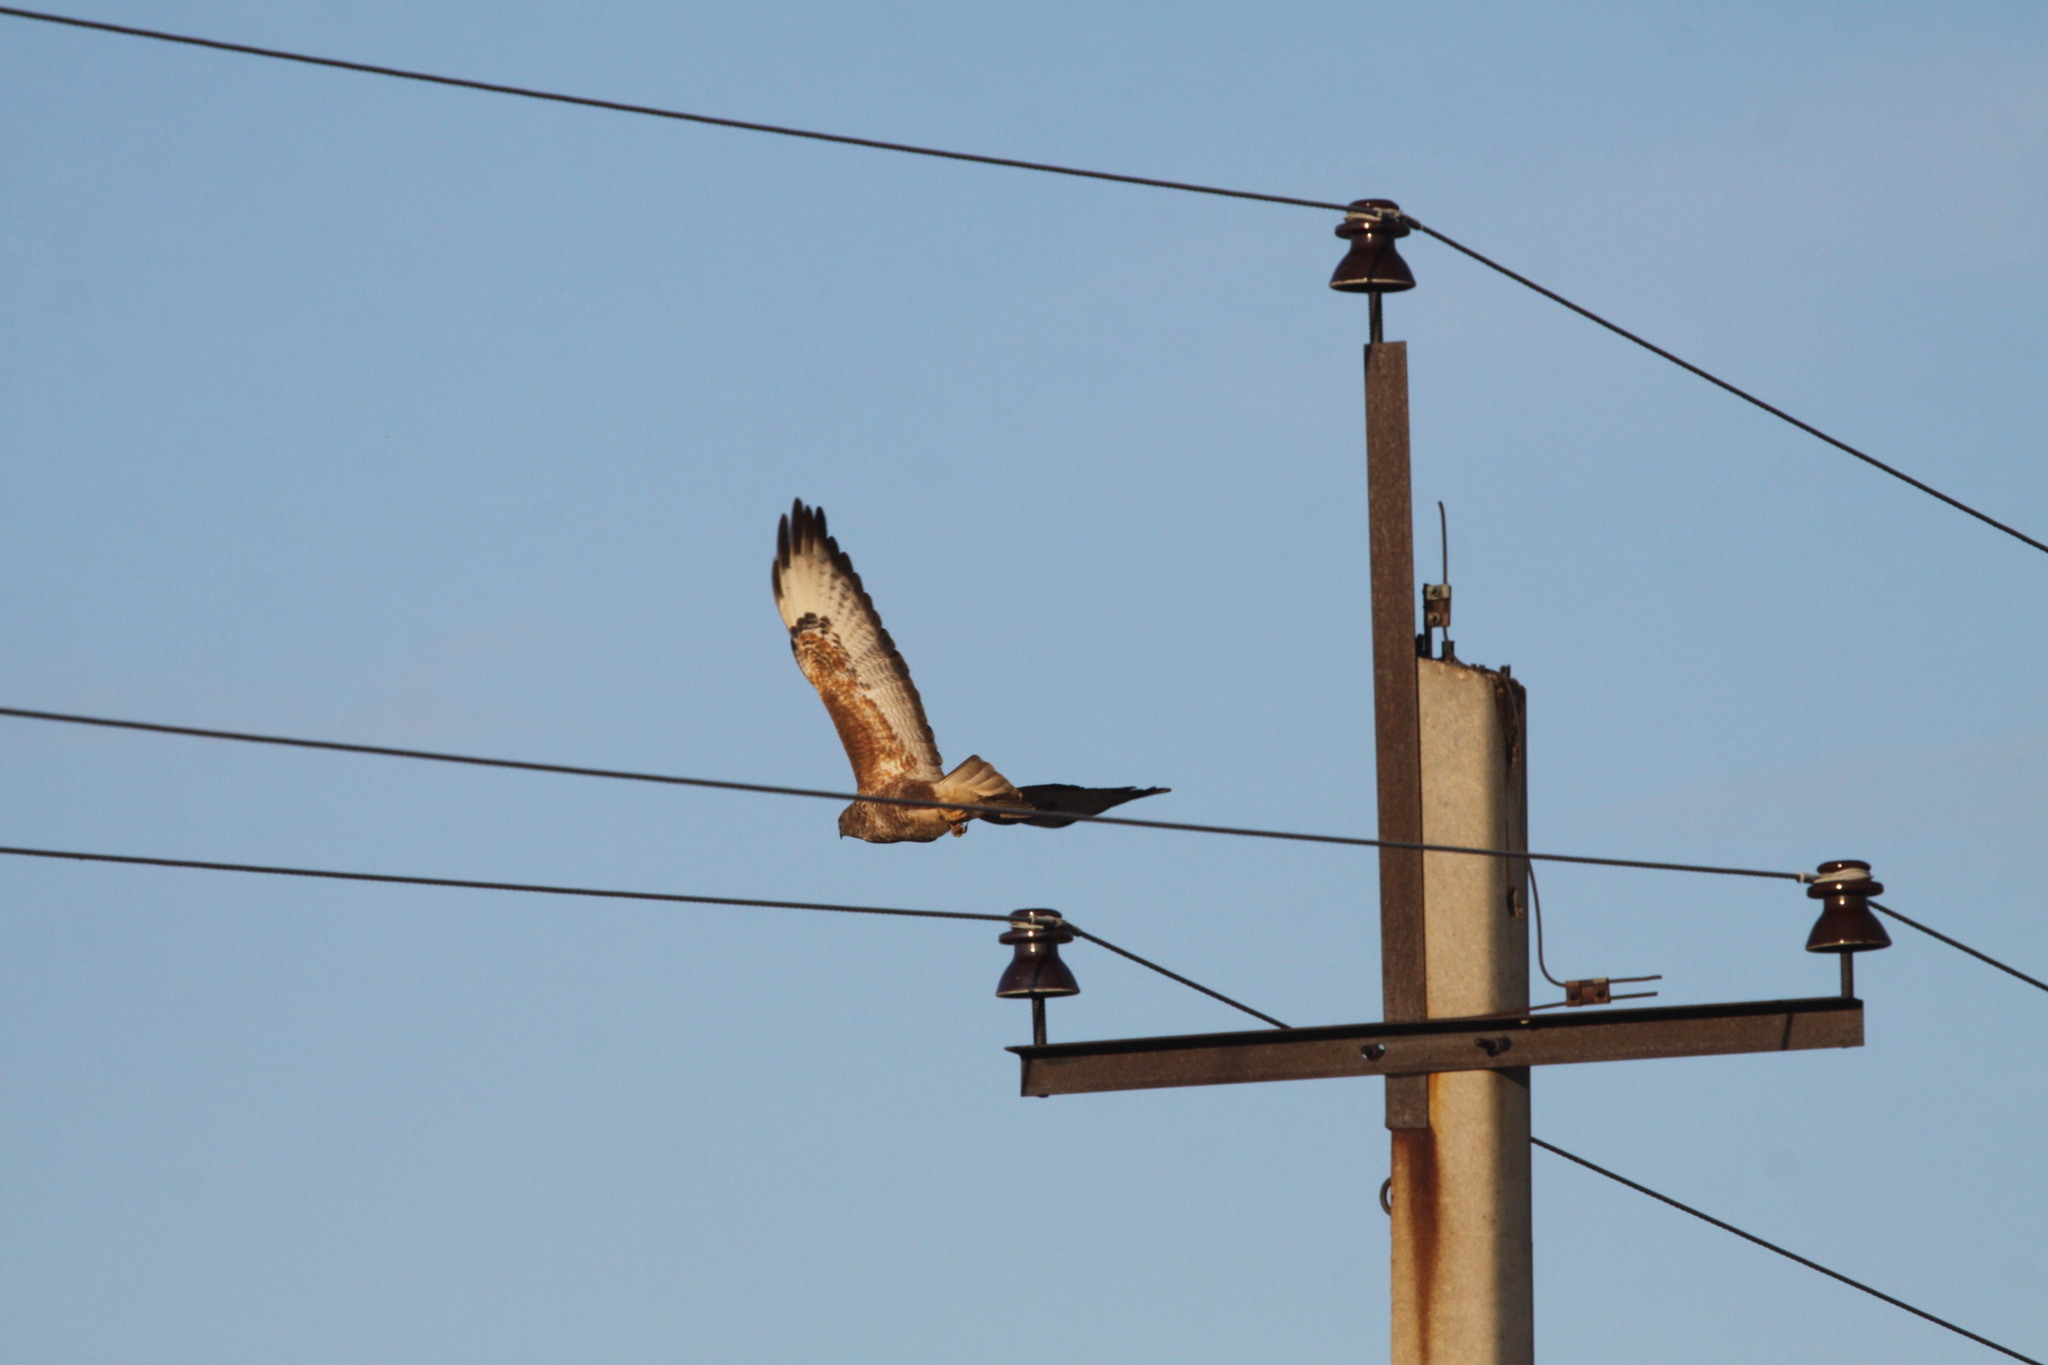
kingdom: Animalia
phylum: Chordata
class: Aves
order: Accipitriformes
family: Accipitridae
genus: Buteo
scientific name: Buteo buteo
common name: Common buzzard
